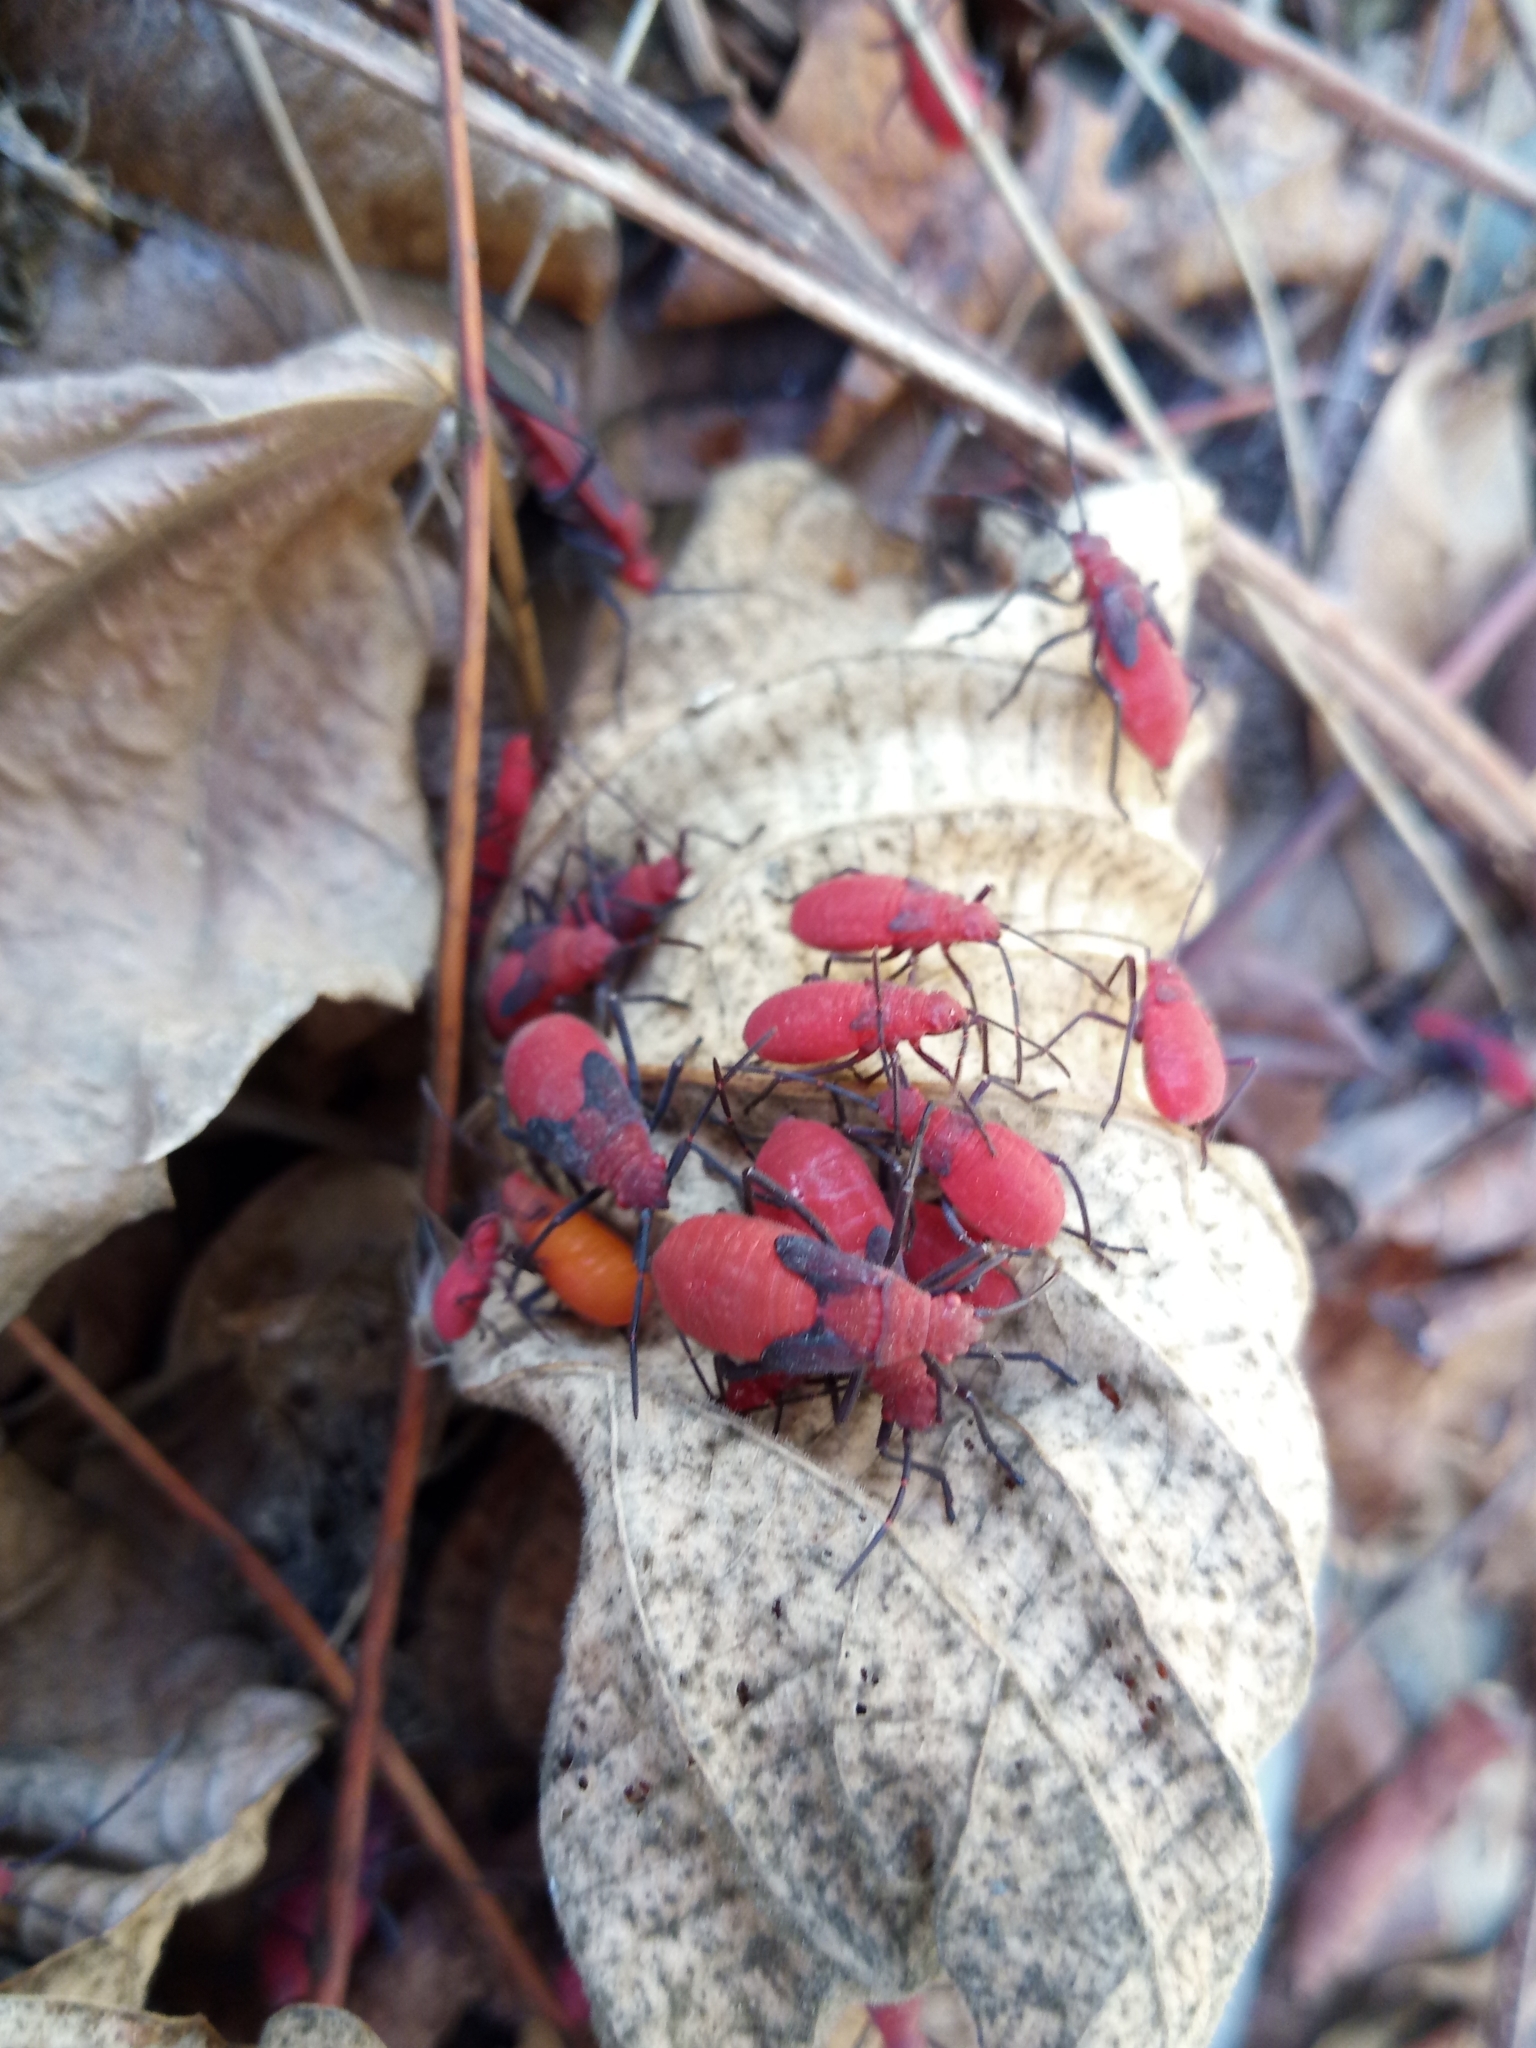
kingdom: Animalia
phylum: Arthropoda
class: Insecta
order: Hemiptera
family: Rhopalidae
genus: Leptocoris
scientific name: Leptocoris vicinus
